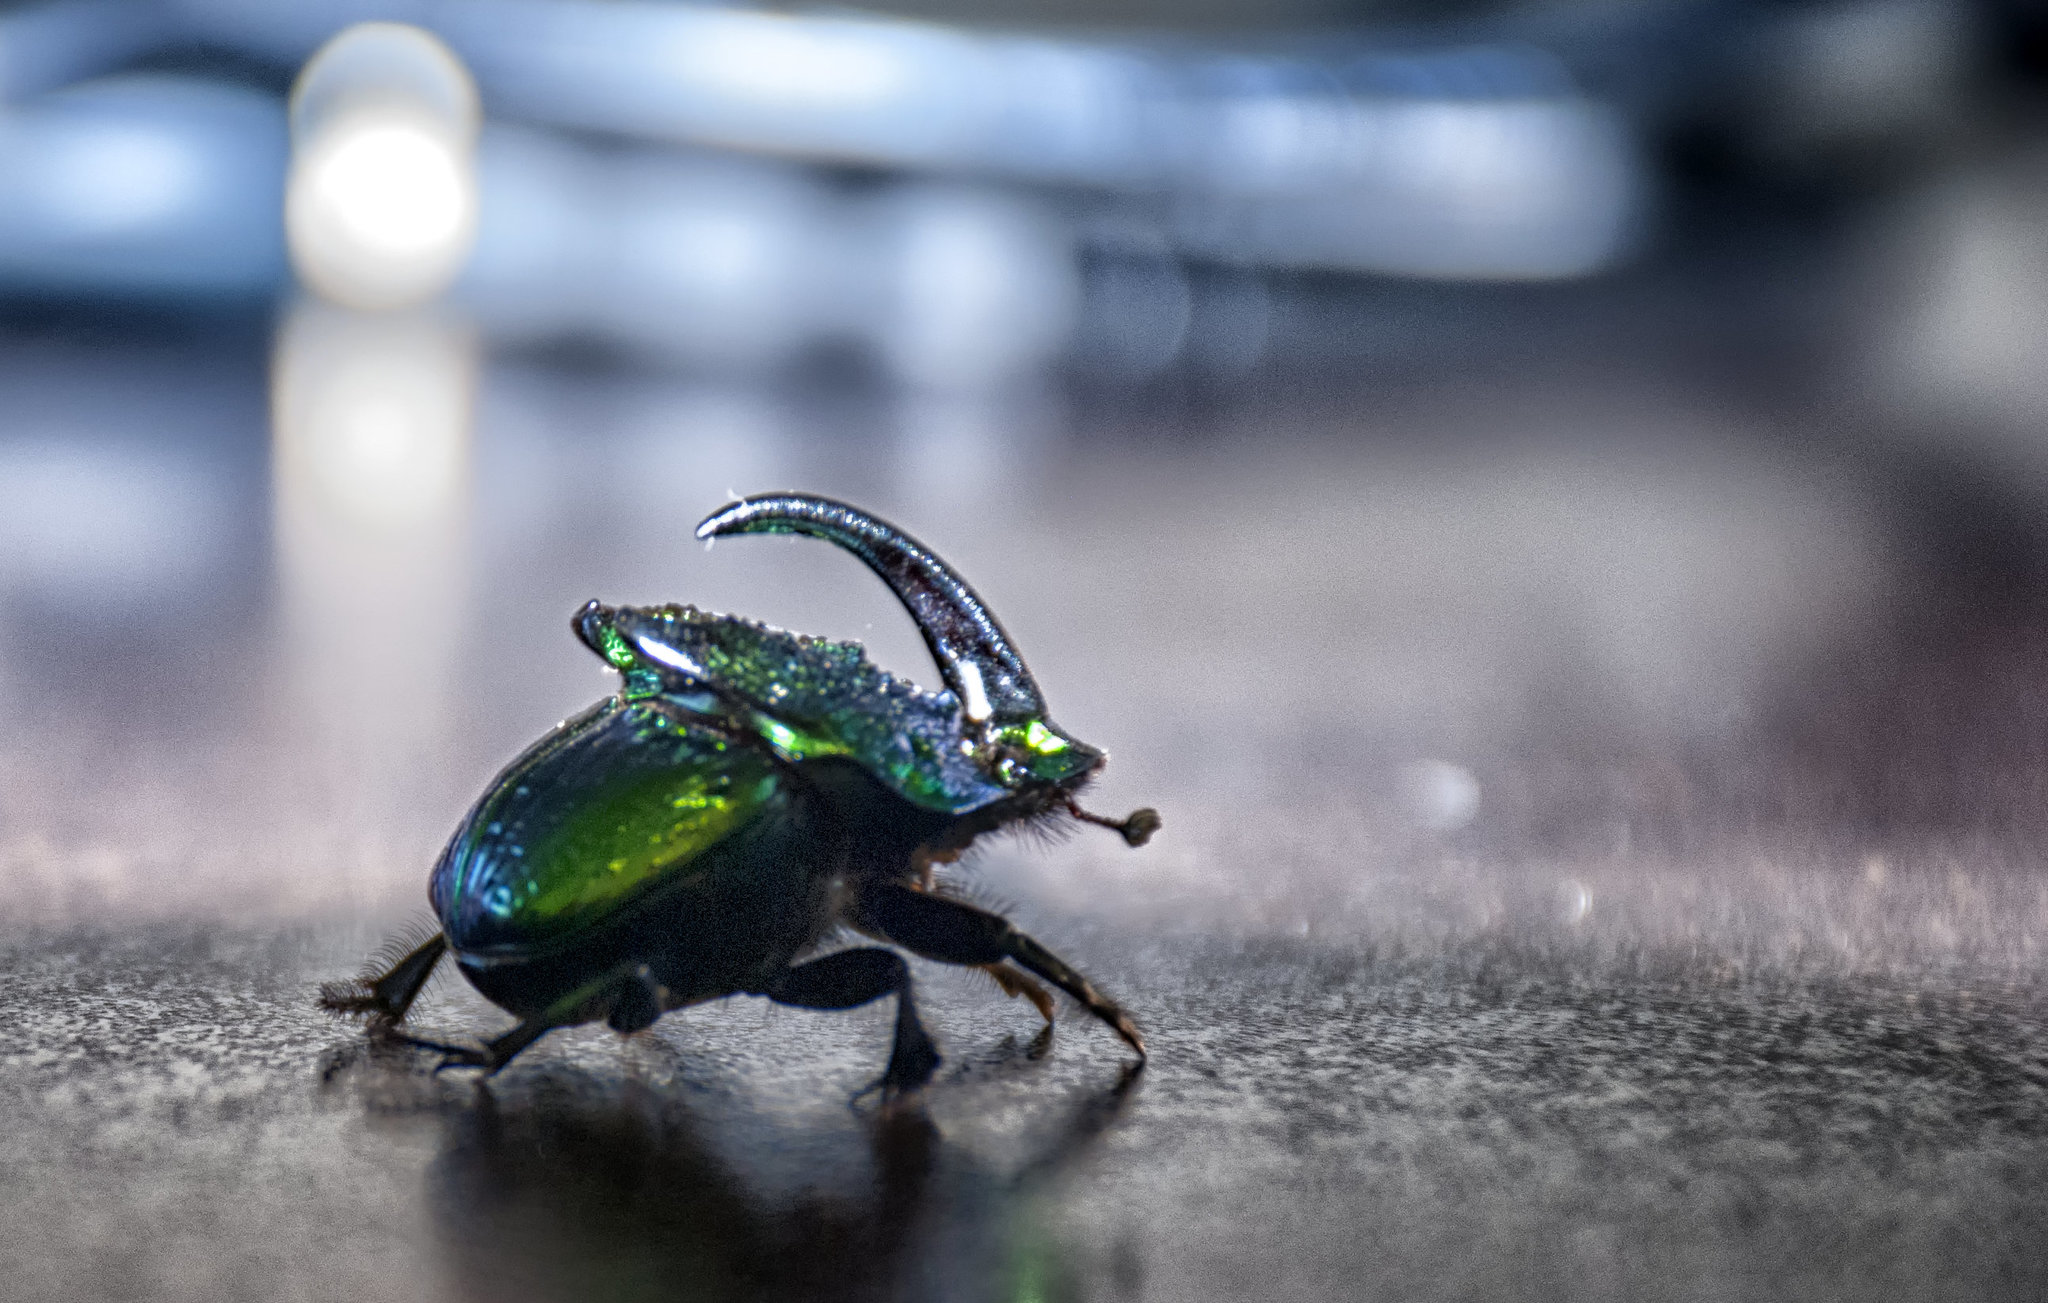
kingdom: Animalia
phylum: Arthropoda
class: Insecta
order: Coleoptera
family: Scarabaeidae
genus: Phanaeus
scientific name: Phanaeus obliquans
